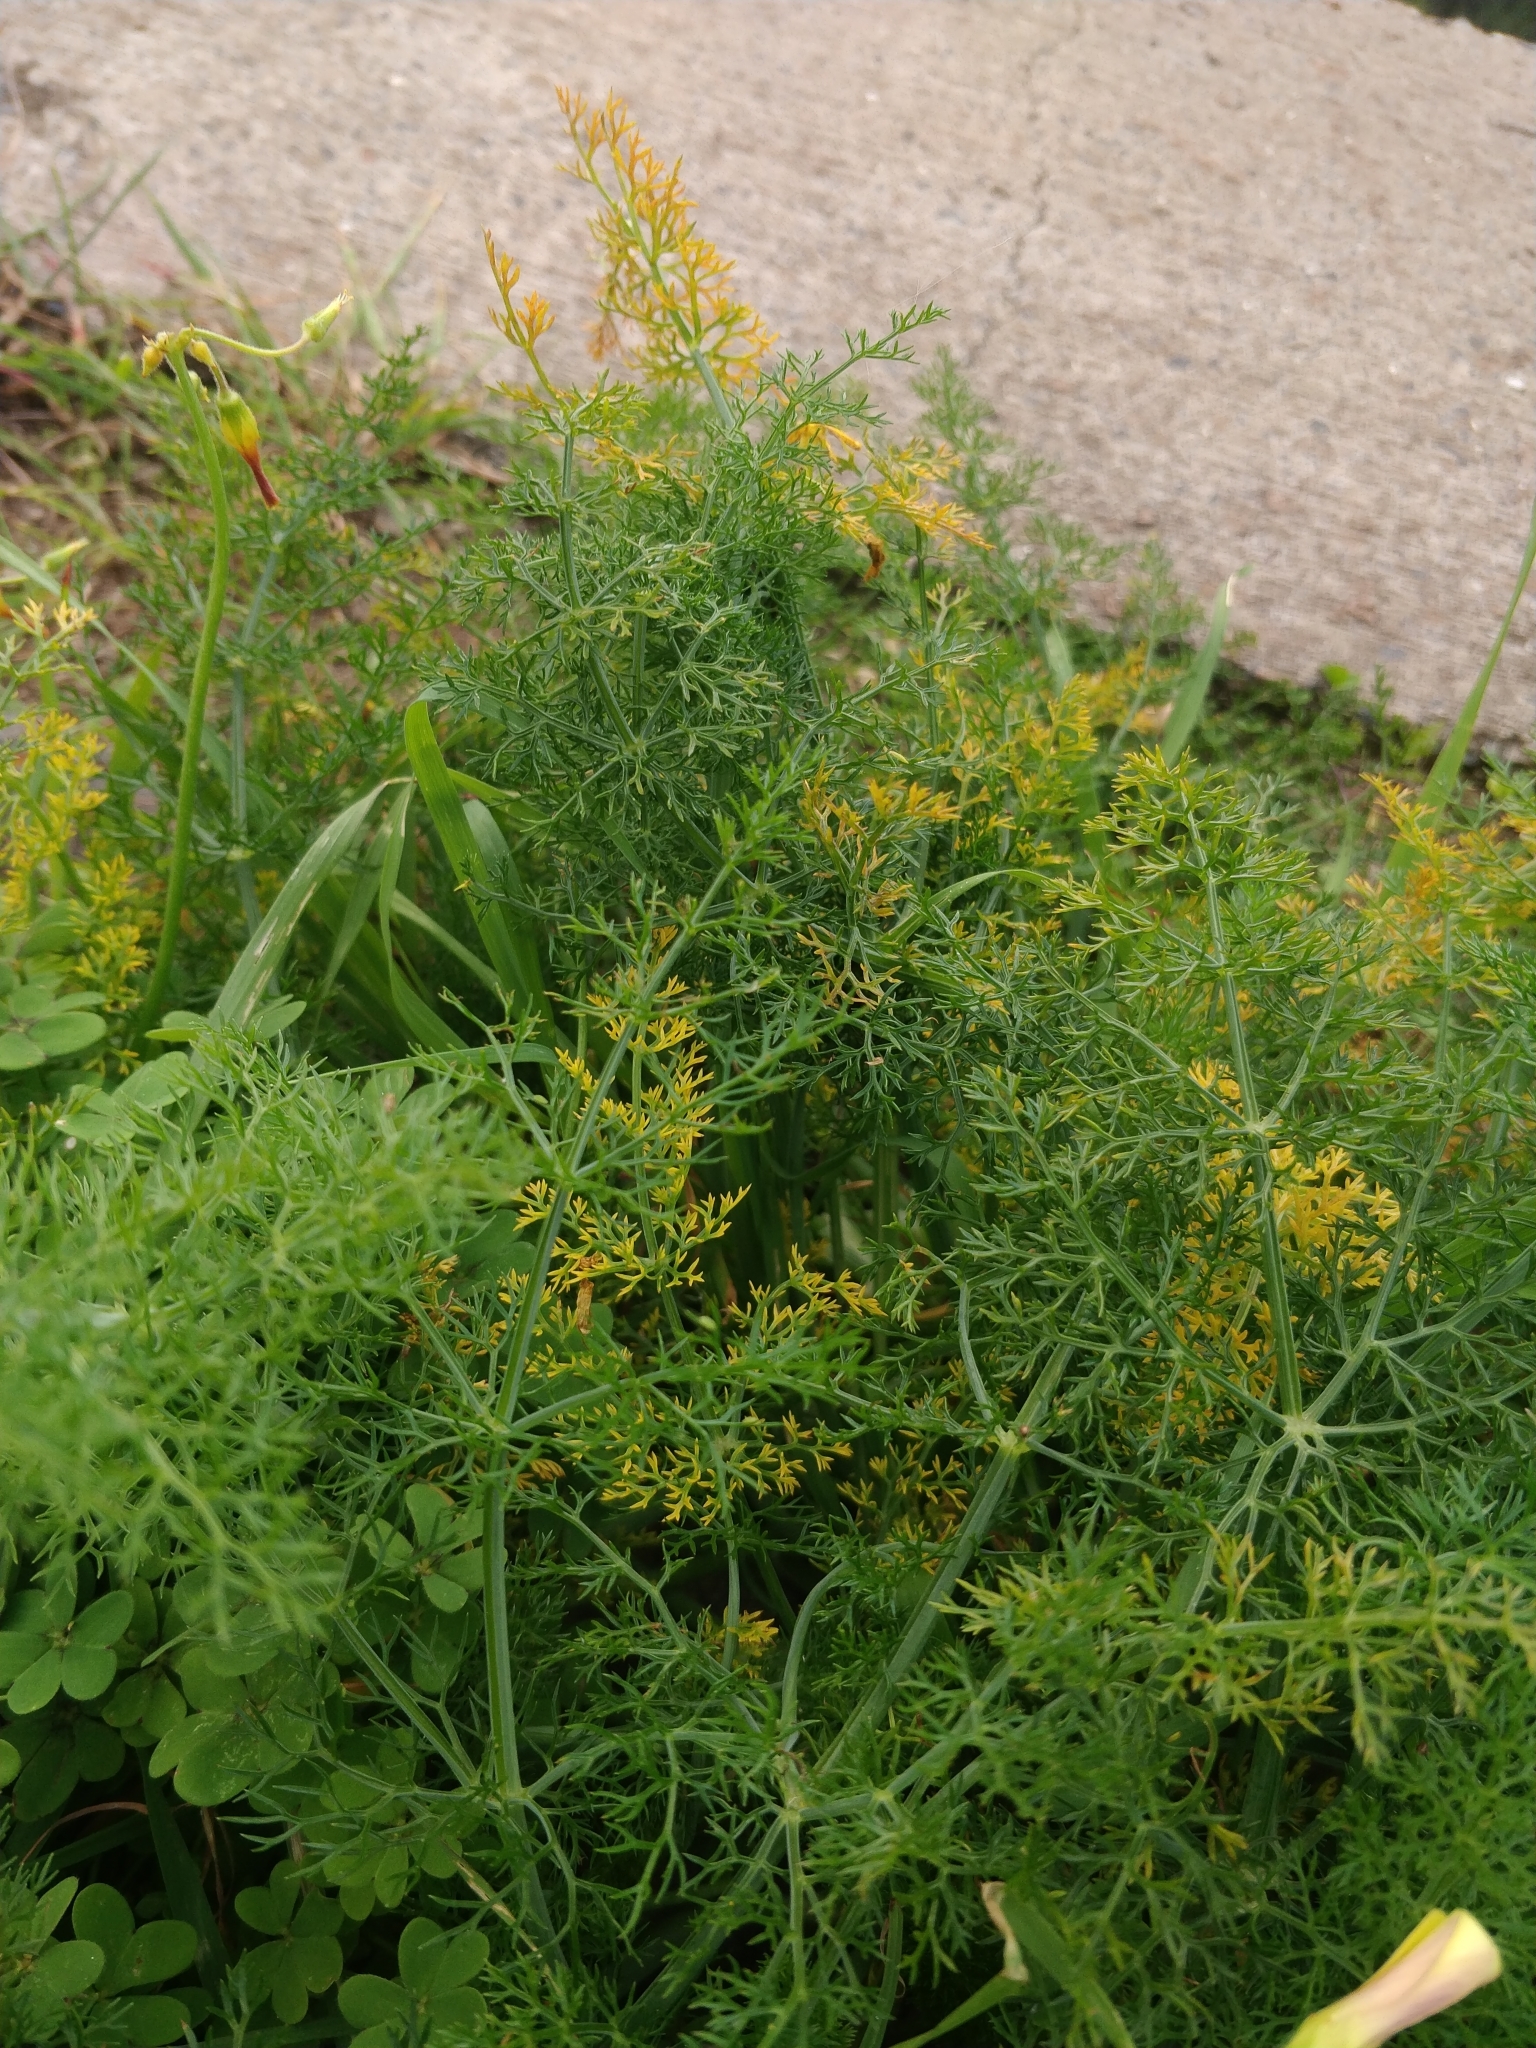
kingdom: Plantae
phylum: Tracheophyta
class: Magnoliopsida
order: Apiales
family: Apiaceae
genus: Foeniculum
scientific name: Foeniculum vulgare
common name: Fennel
